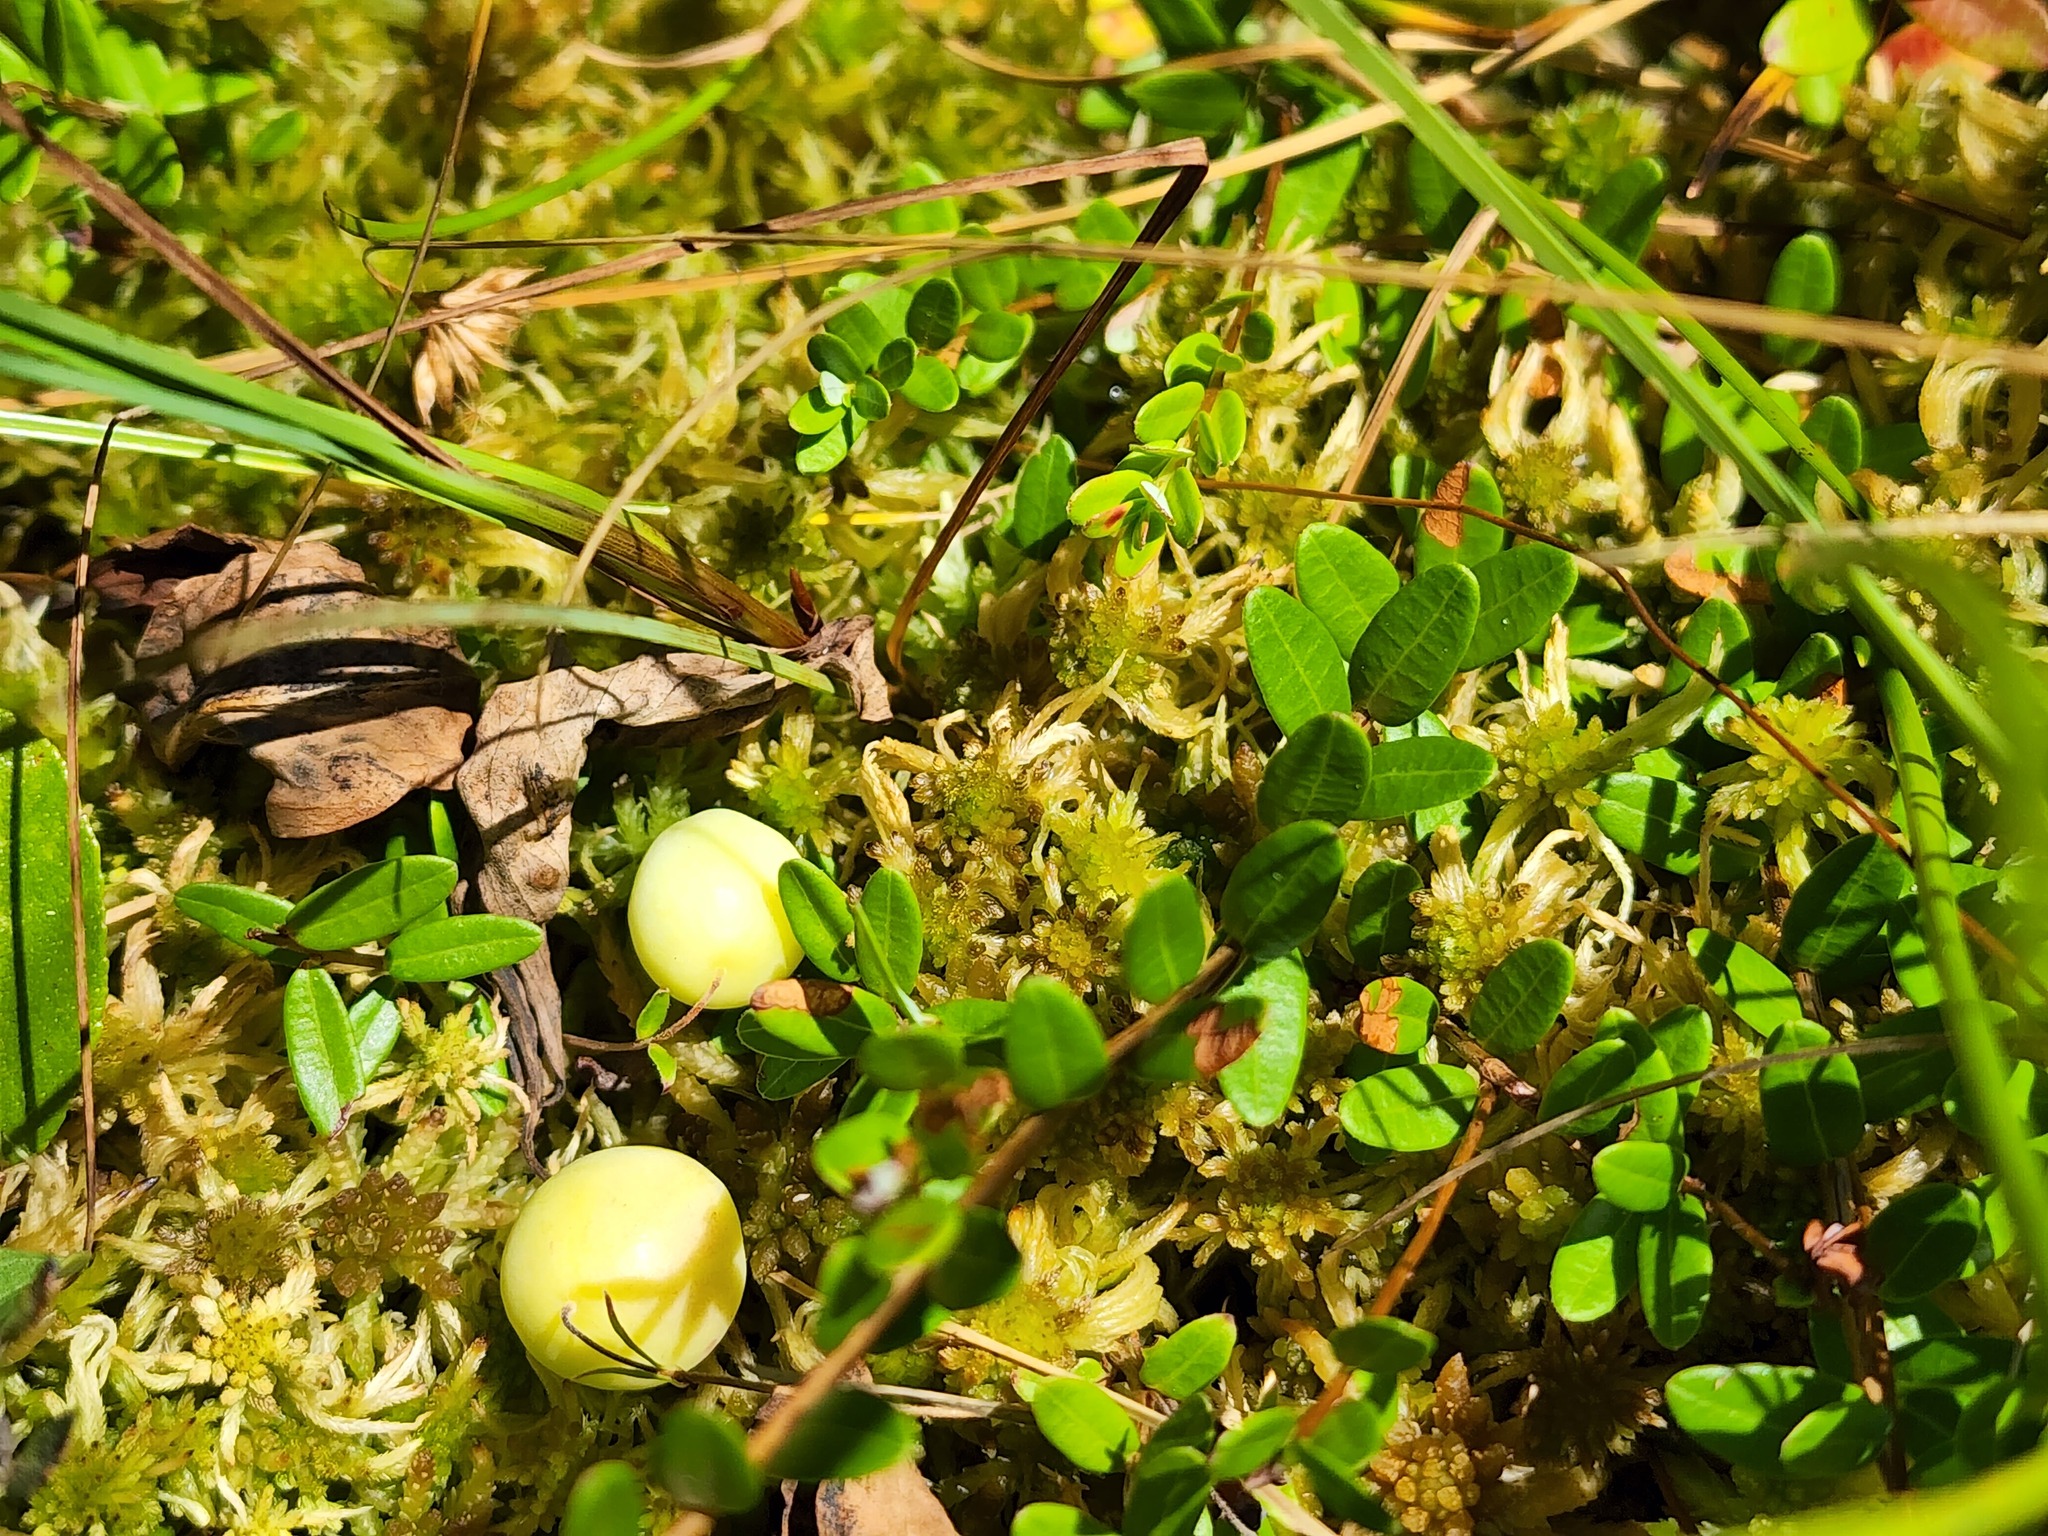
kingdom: Plantae
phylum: Tracheophyta
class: Magnoliopsida
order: Ericales
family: Ericaceae
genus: Vaccinium
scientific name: Vaccinium macrocarpon
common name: American cranberry
